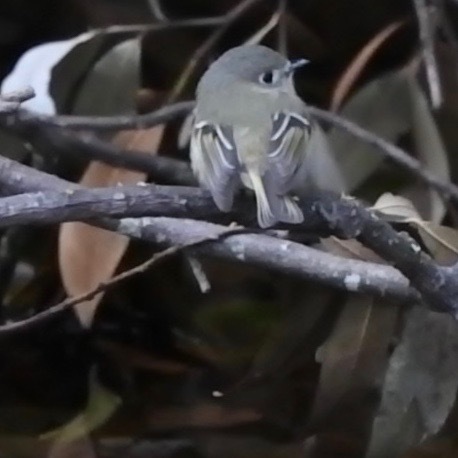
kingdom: Animalia
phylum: Chordata
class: Aves
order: Passeriformes
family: Regulidae
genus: Regulus
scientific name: Regulus calendula
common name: Ruby-crowned kinglet
